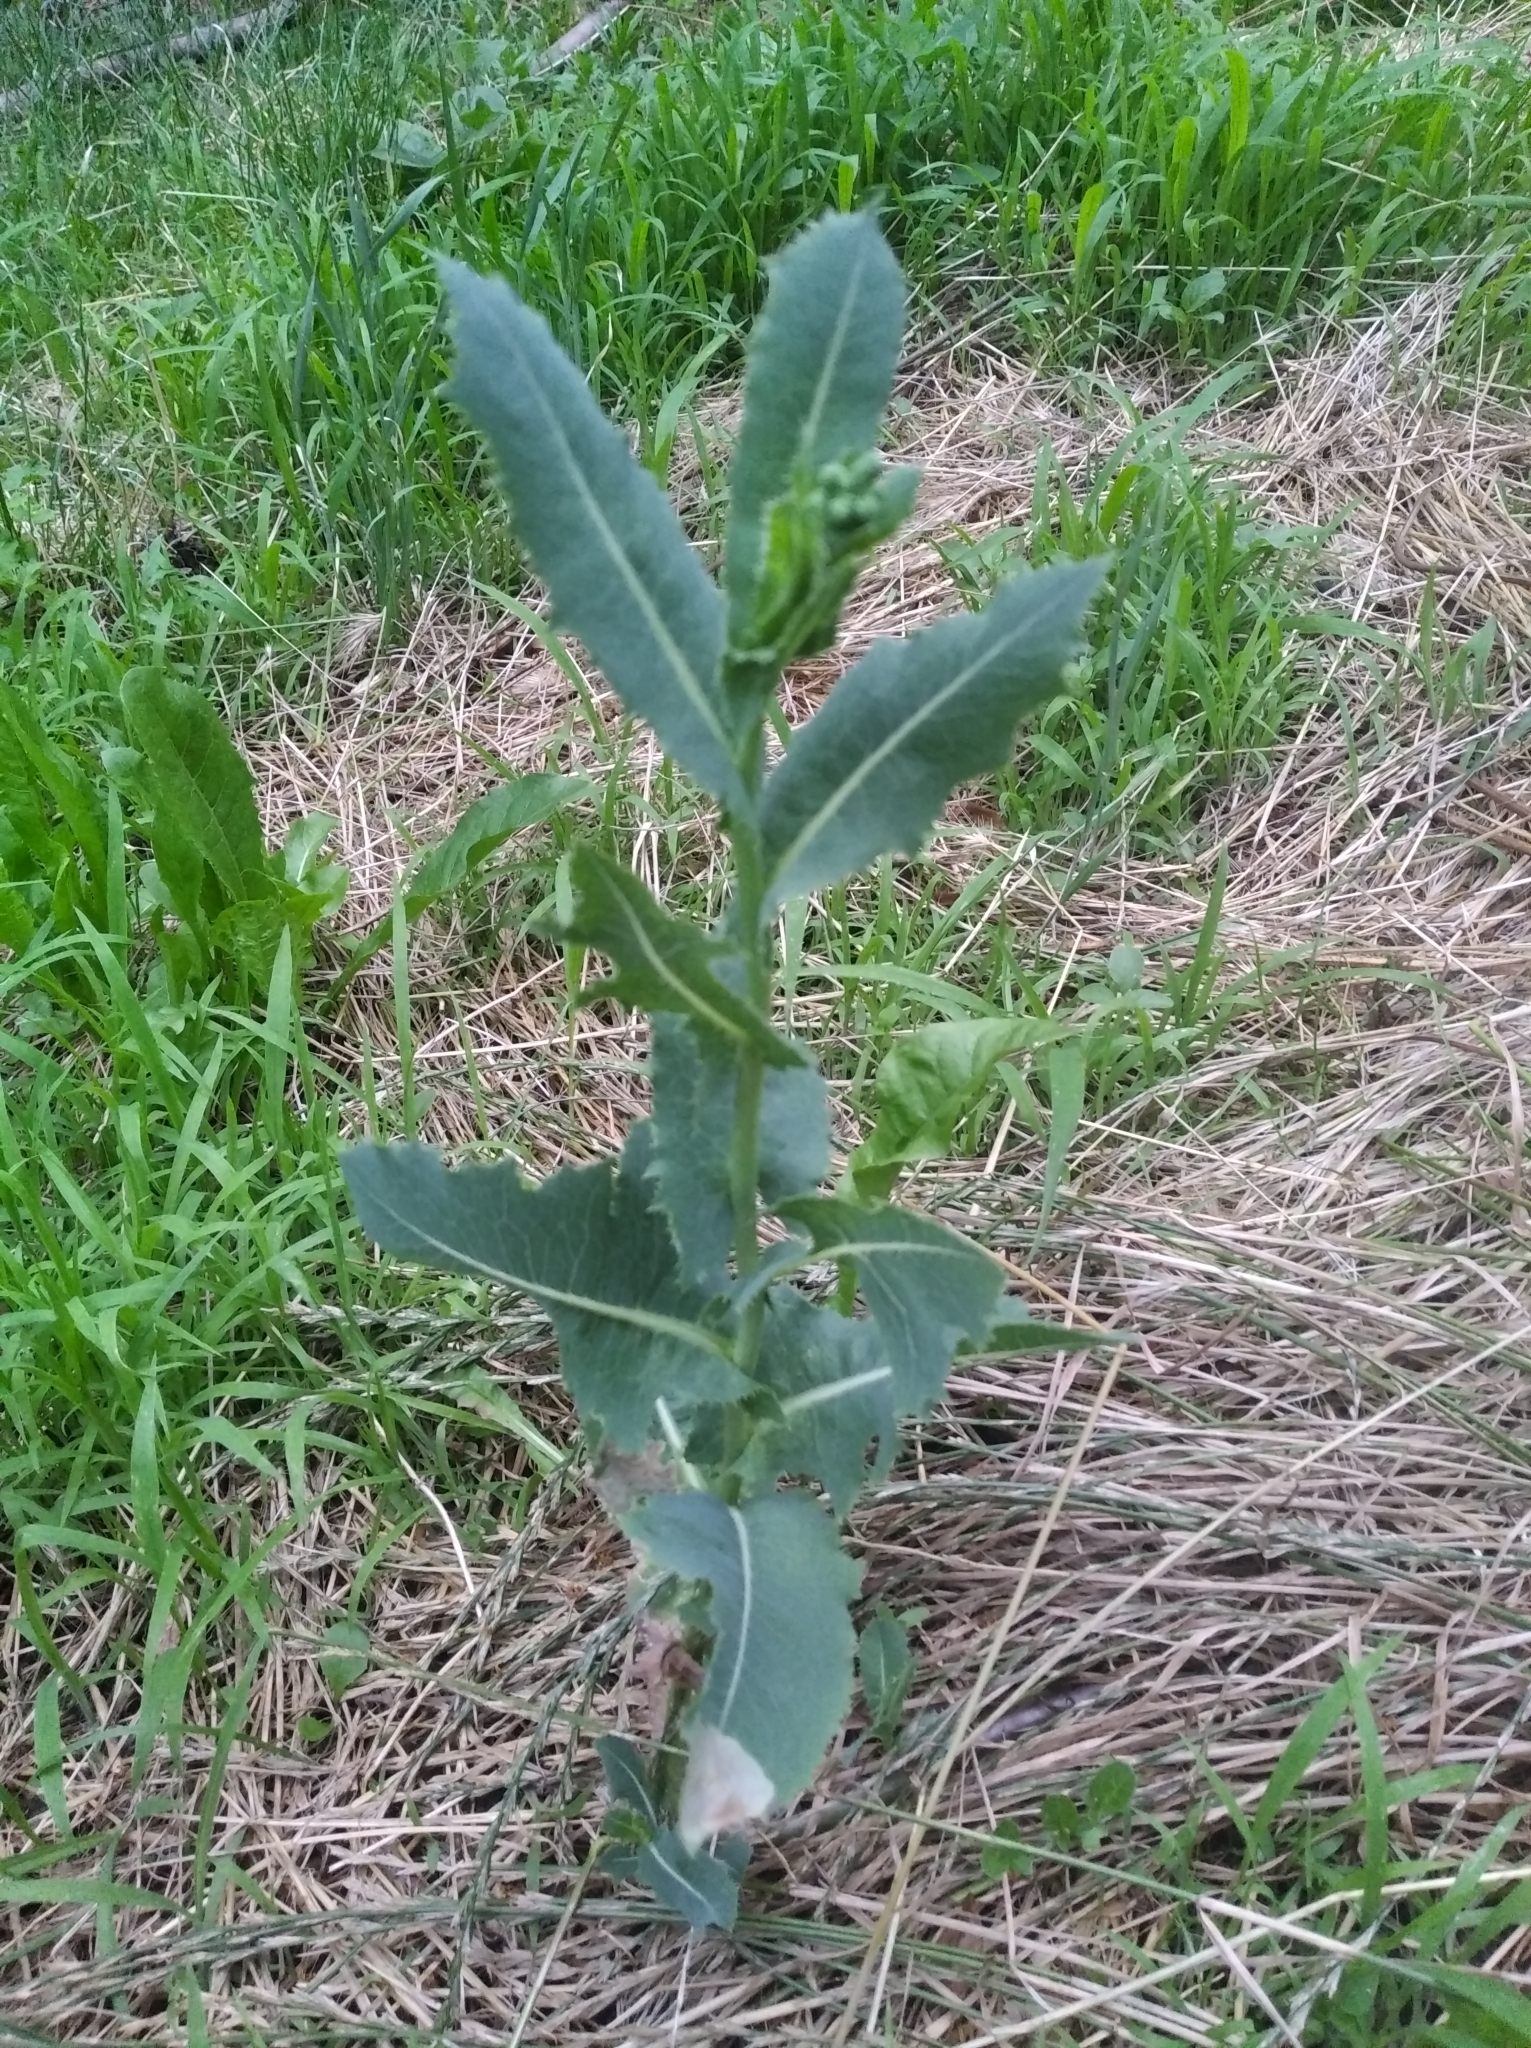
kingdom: Plantae
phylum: Tracheophyta
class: Magnoliopsida
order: Asterales
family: Asteraceae
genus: Lactuca
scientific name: Lactuca serriola
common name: Prickly lettuce
